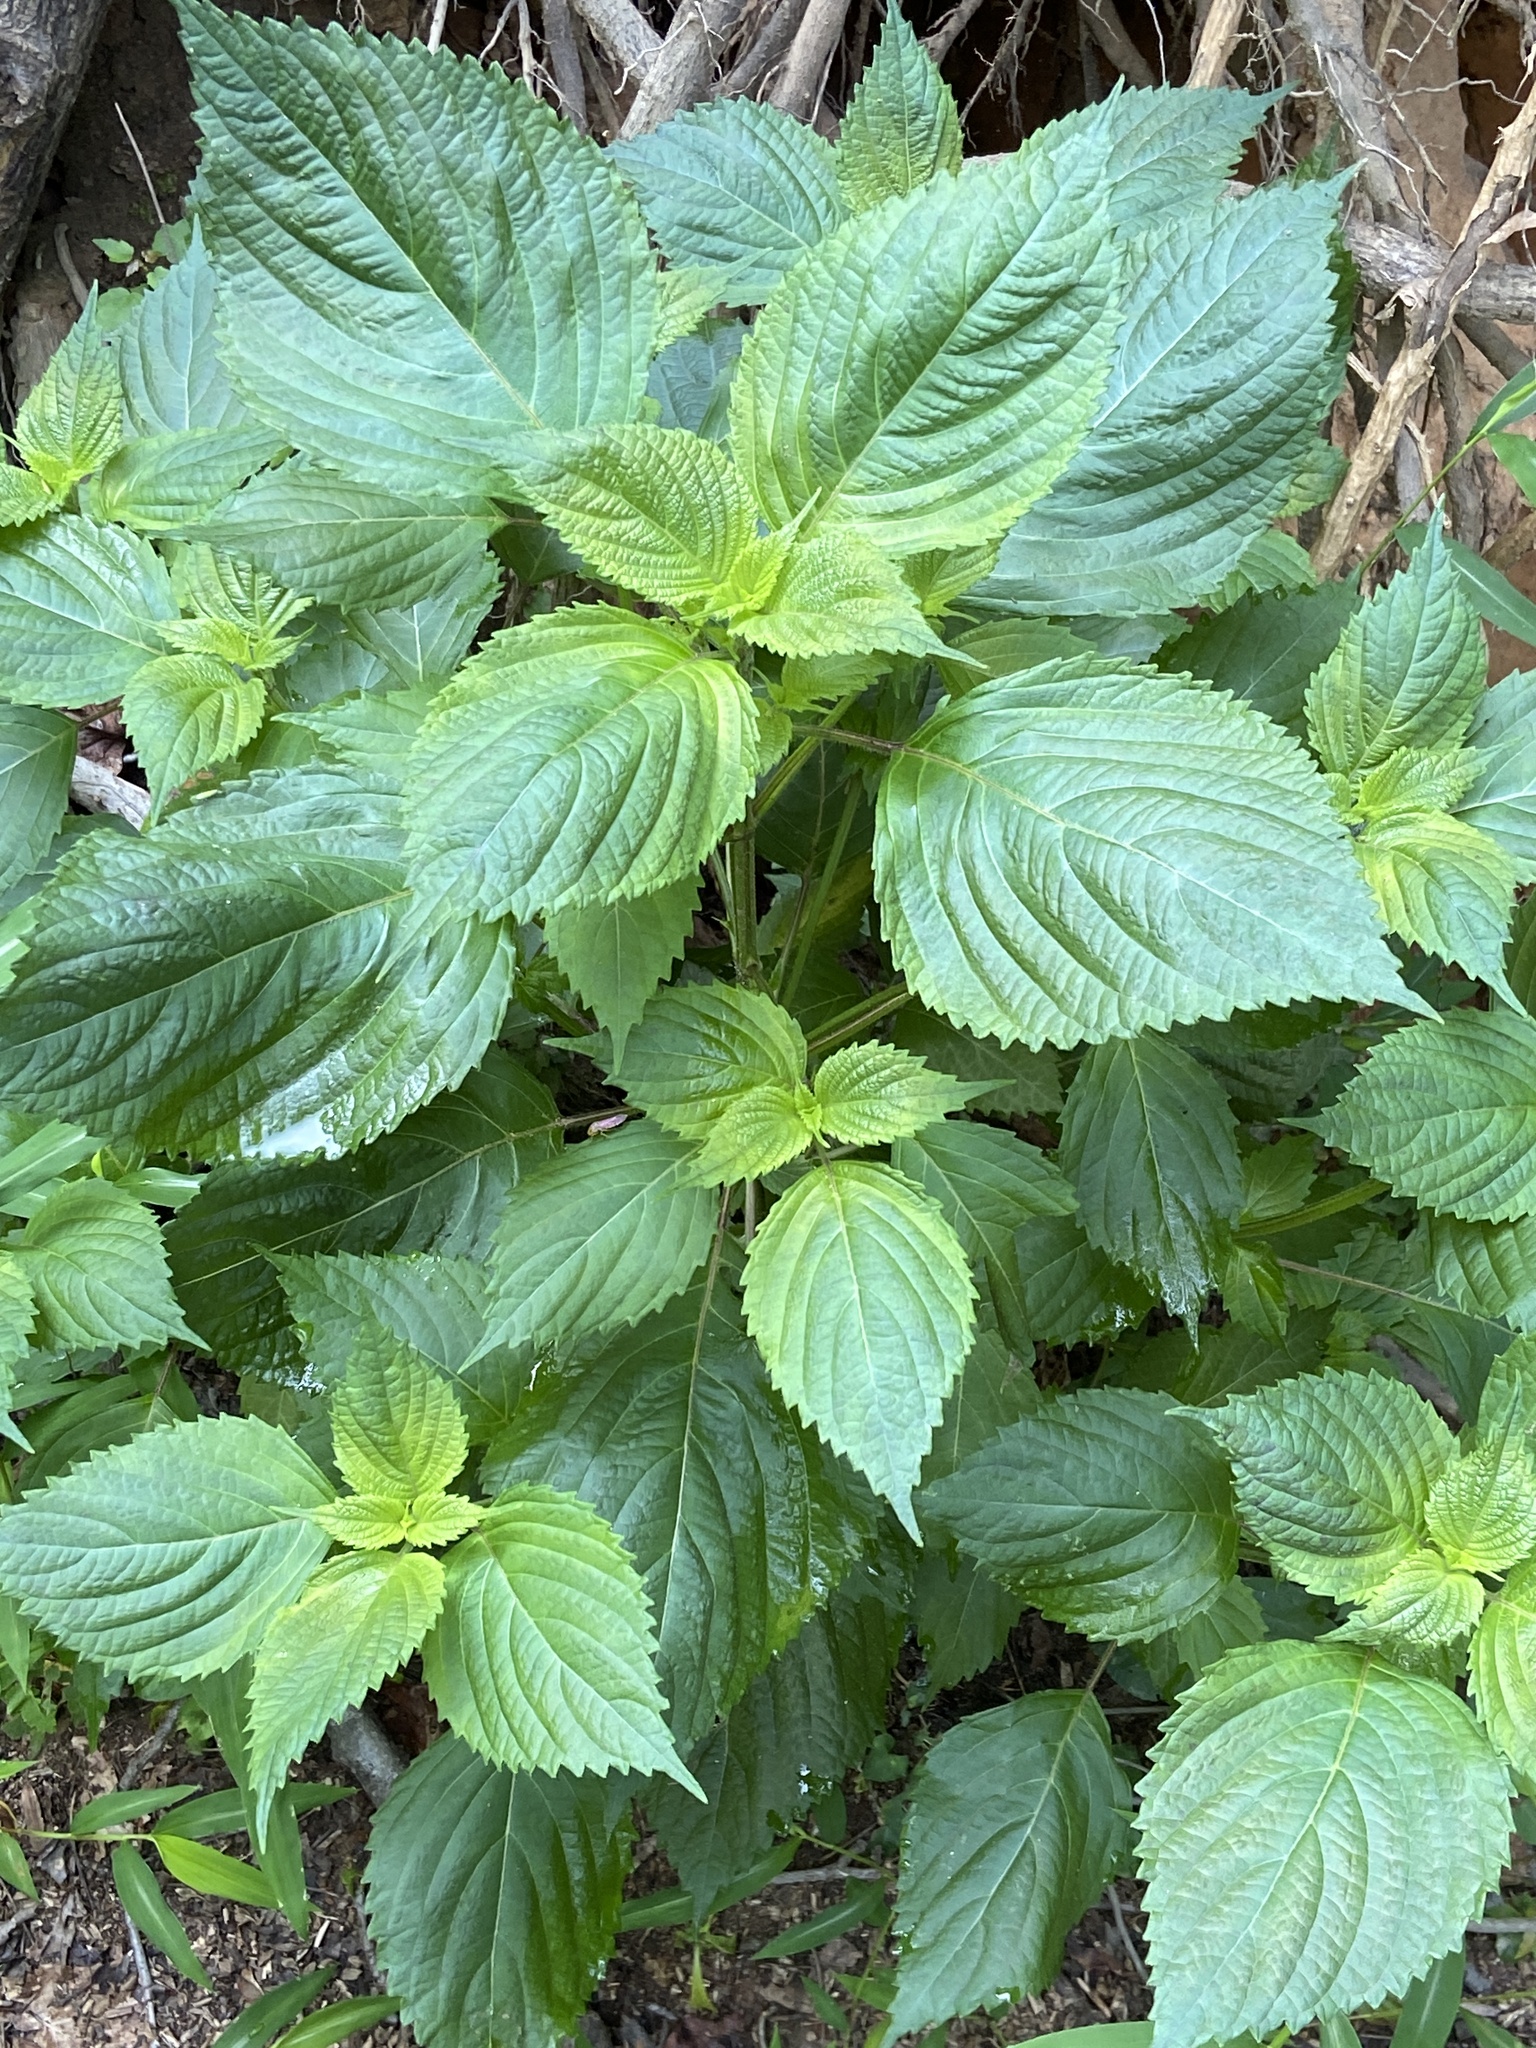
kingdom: Plantae
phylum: Tracheophyta
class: Magnoliopsida
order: Lamiales
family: Lamiaceae
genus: Perilla
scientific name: Perilla frutescens
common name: Perilla
